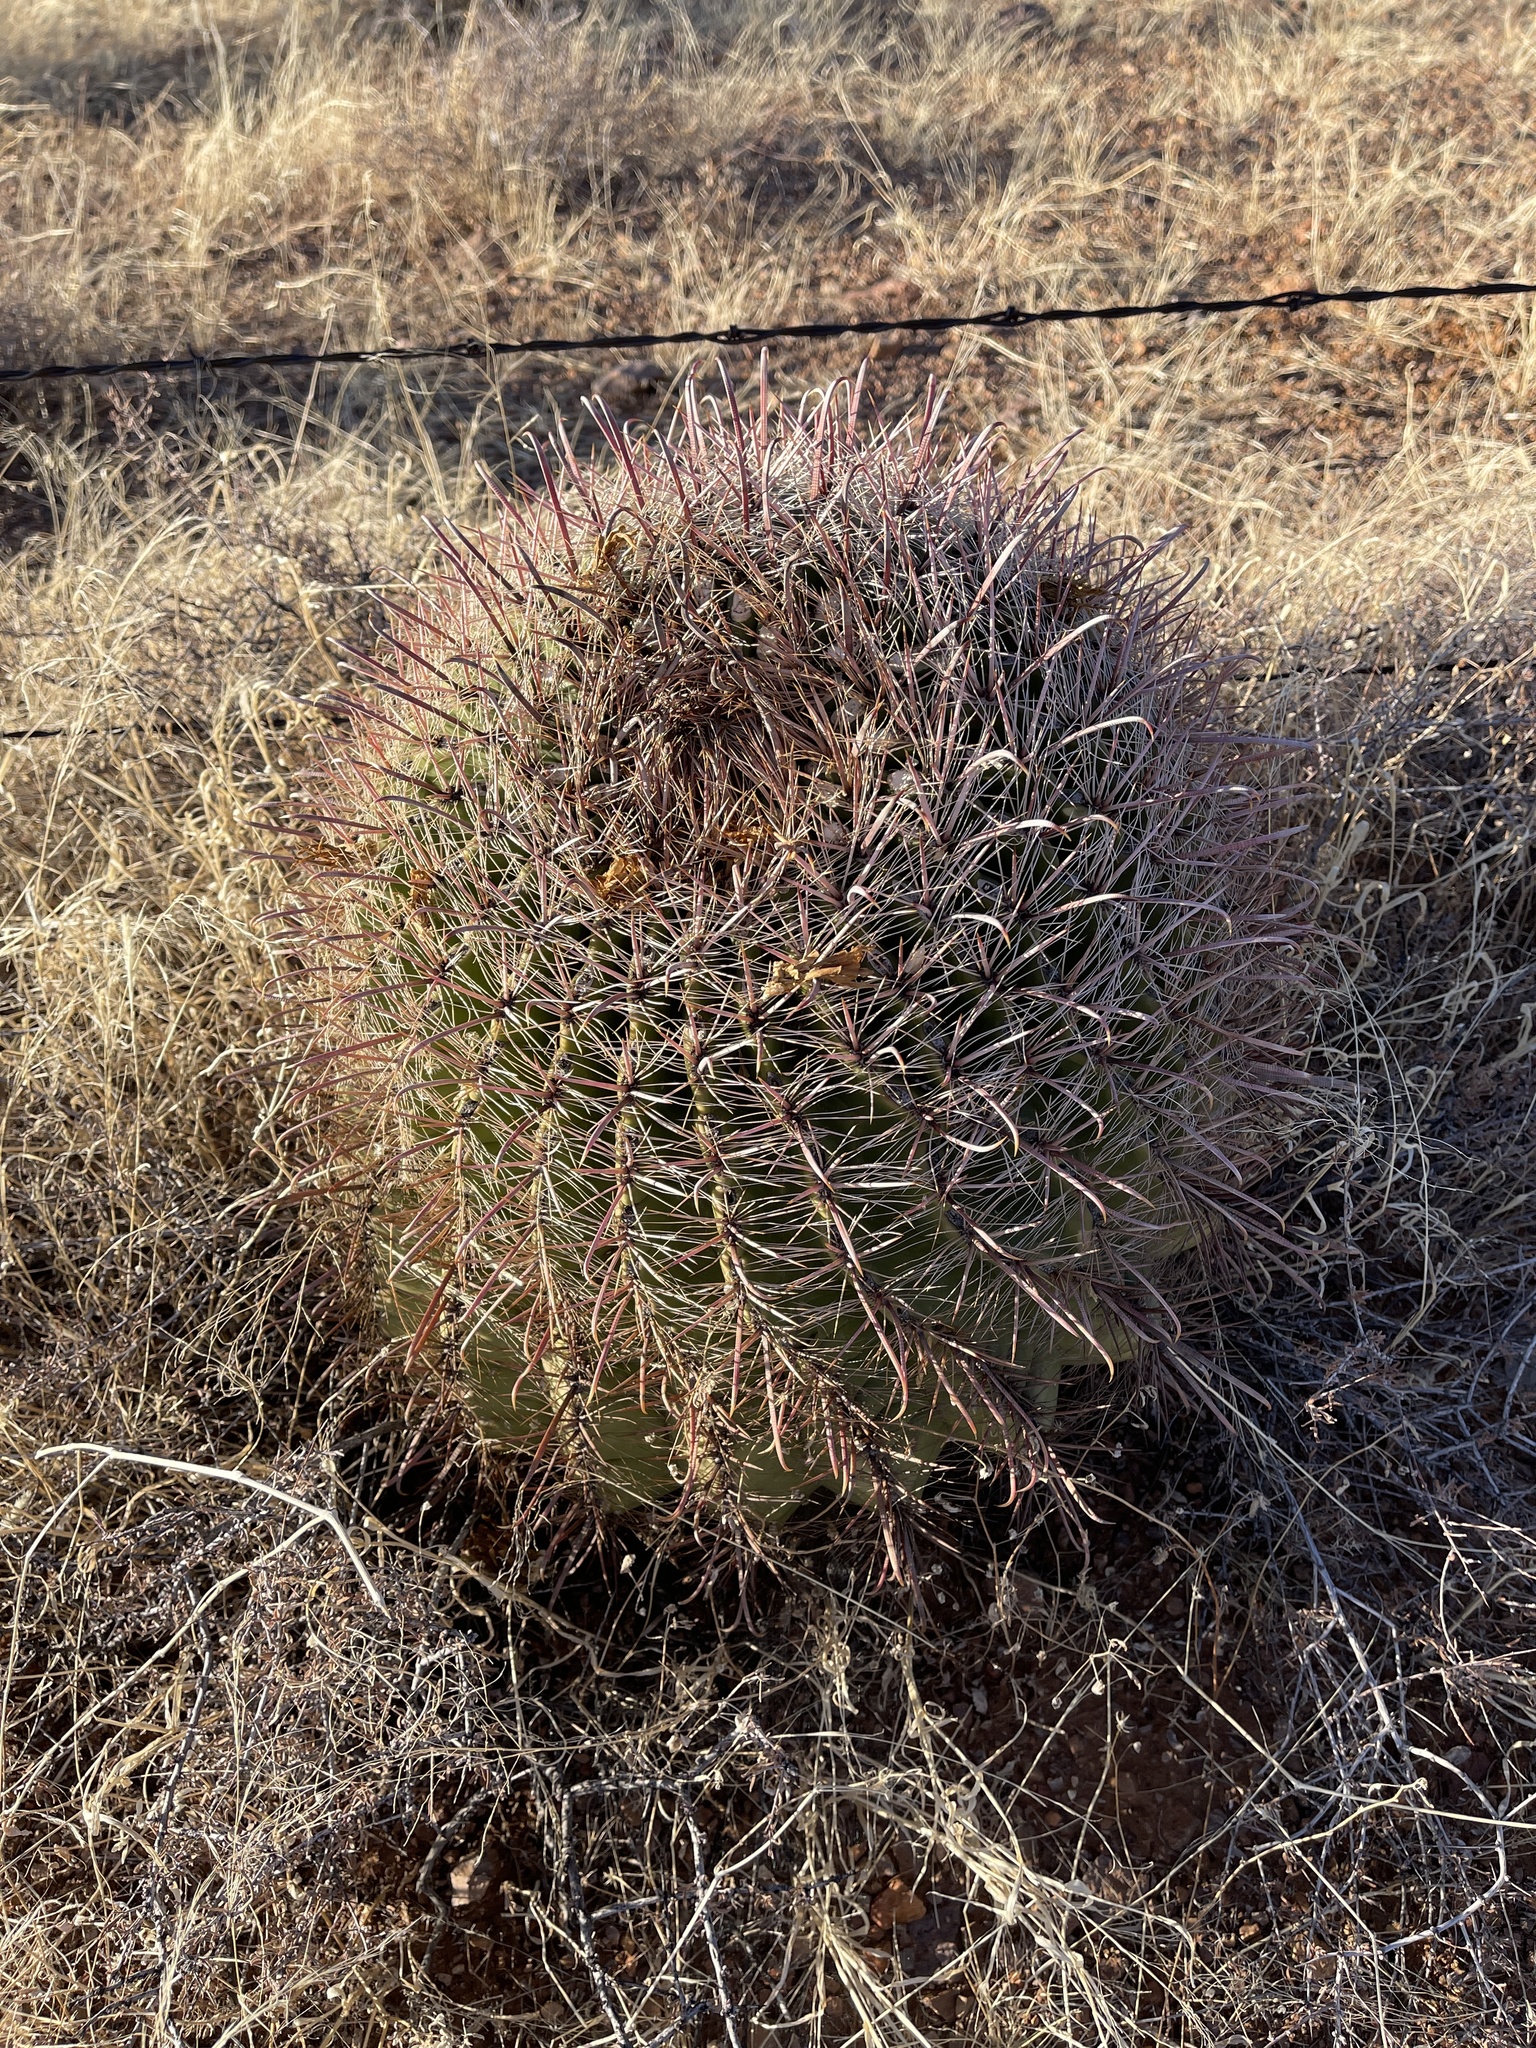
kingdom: Plantae
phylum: Tracheophyta
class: Magnoliopsida
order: Caryophyllales
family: Cactaceae
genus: Ferocactus
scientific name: Ferocactus wislizeni
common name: Candy barrel cactus
